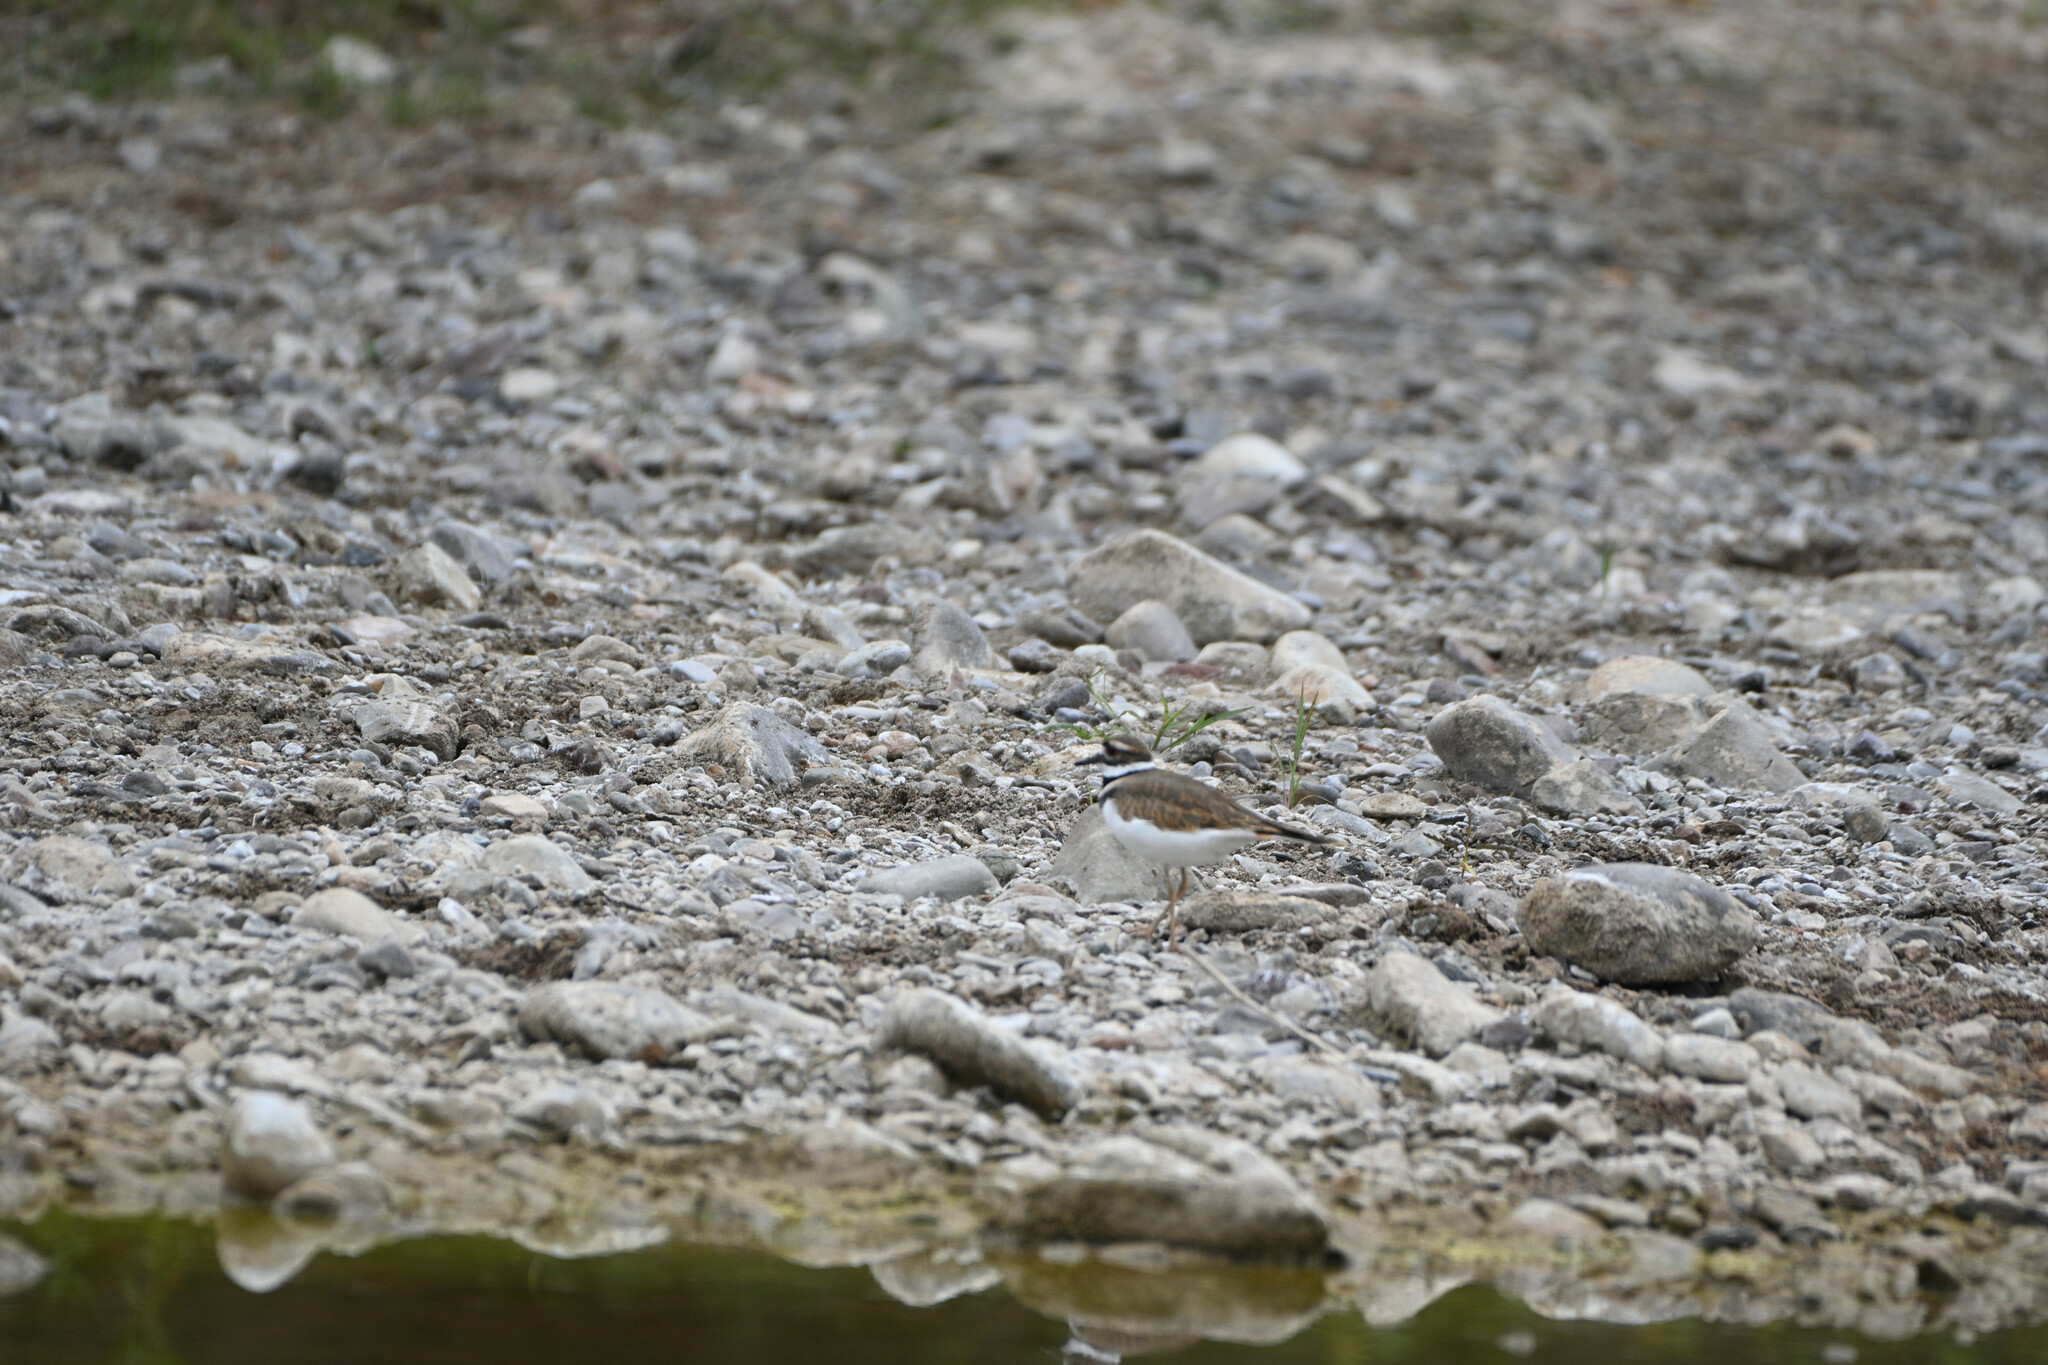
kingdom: Animalia
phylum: Chordata
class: Aves
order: Charadriiformes
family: Charadriidae
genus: Charadrius
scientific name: Charadrius vociferus
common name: Killdeer
